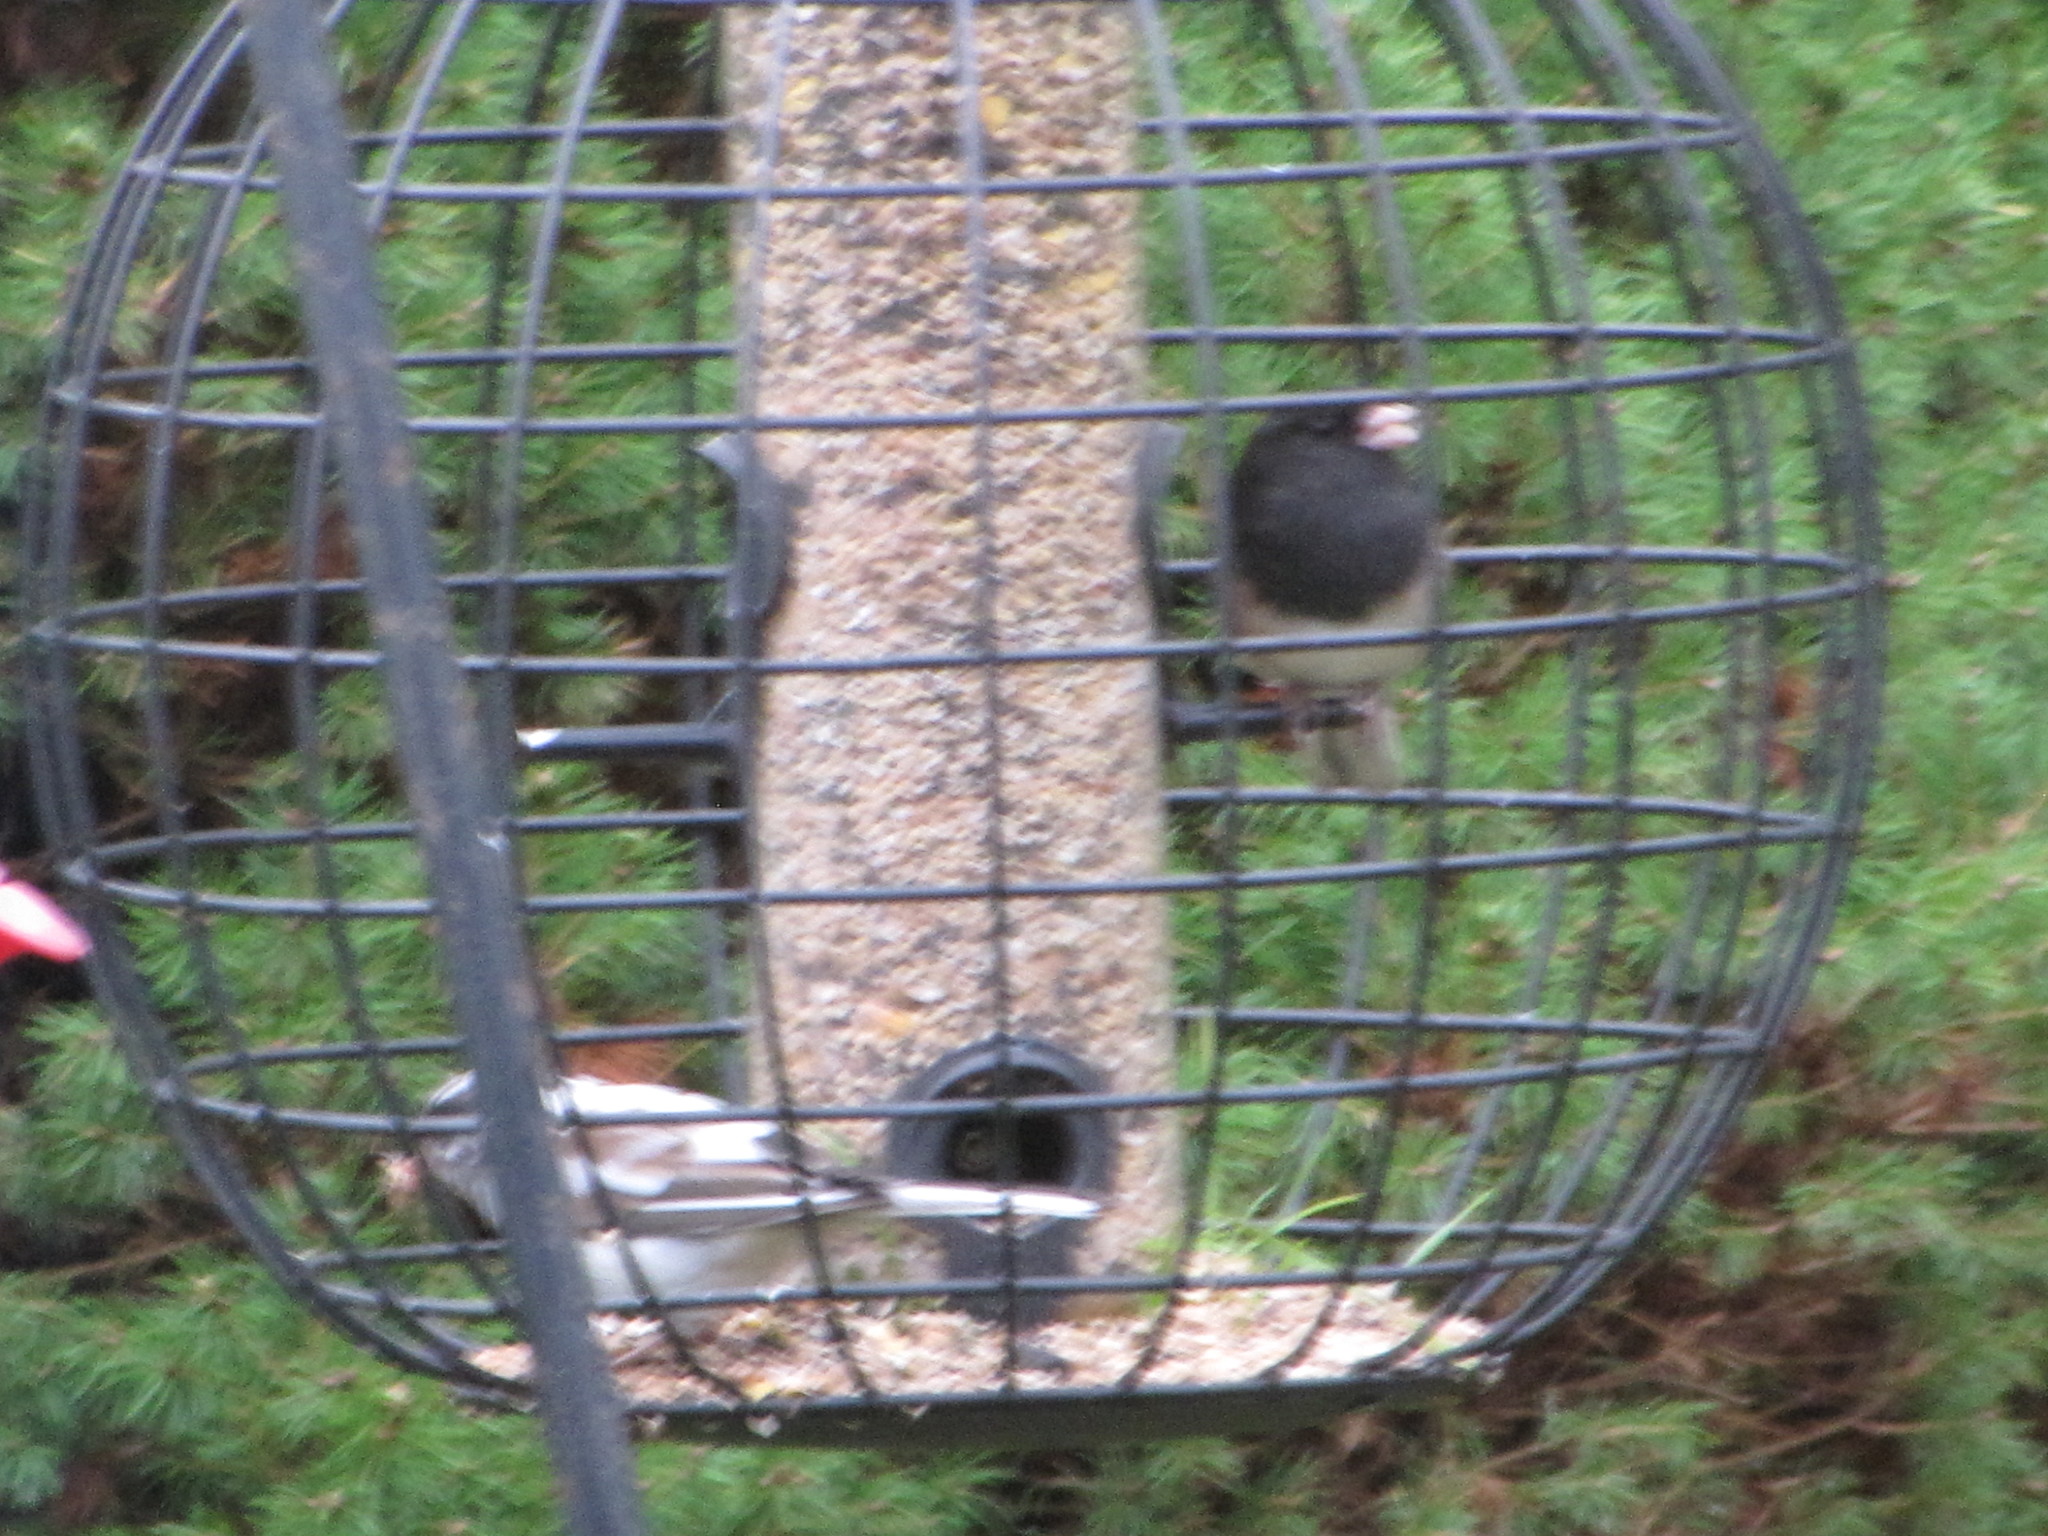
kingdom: Animalia
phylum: Chordata
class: Aves
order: Passeriformes
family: Passerellidae
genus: Junco
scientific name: Junco hyemalis
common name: Dark-eyed junco
